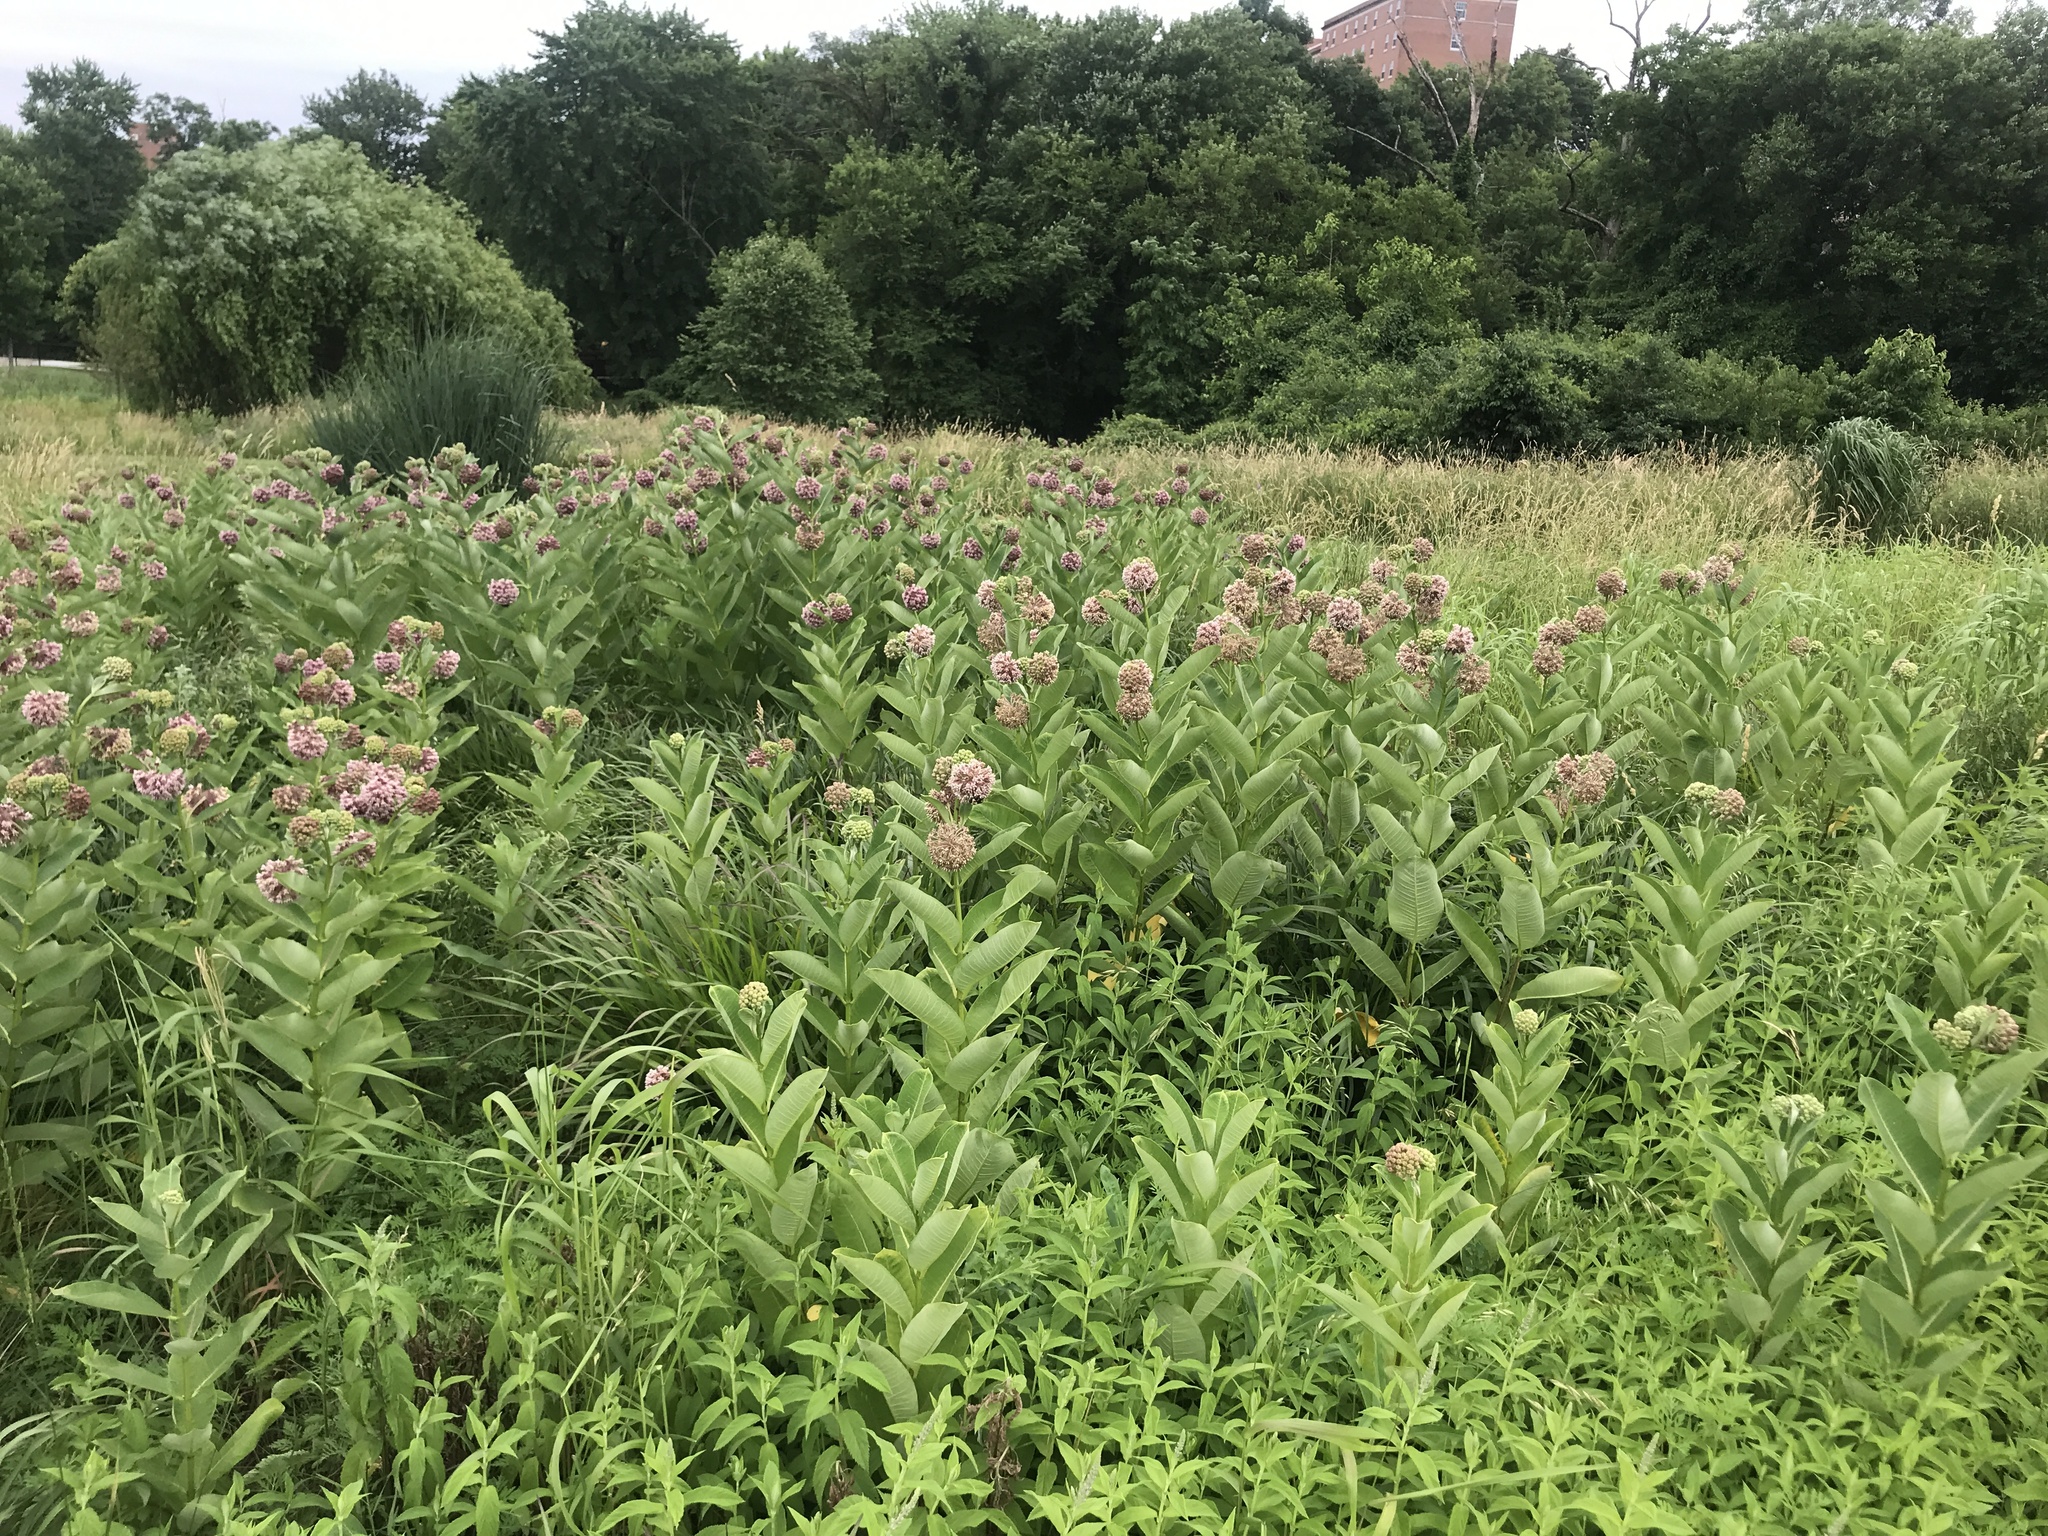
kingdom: Plantae
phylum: Tracheophyta
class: Magnoliopsida
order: Gentianales
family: Apocynaceae
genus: Asclepias
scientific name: Asclepias syriaca
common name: Common milkweed
